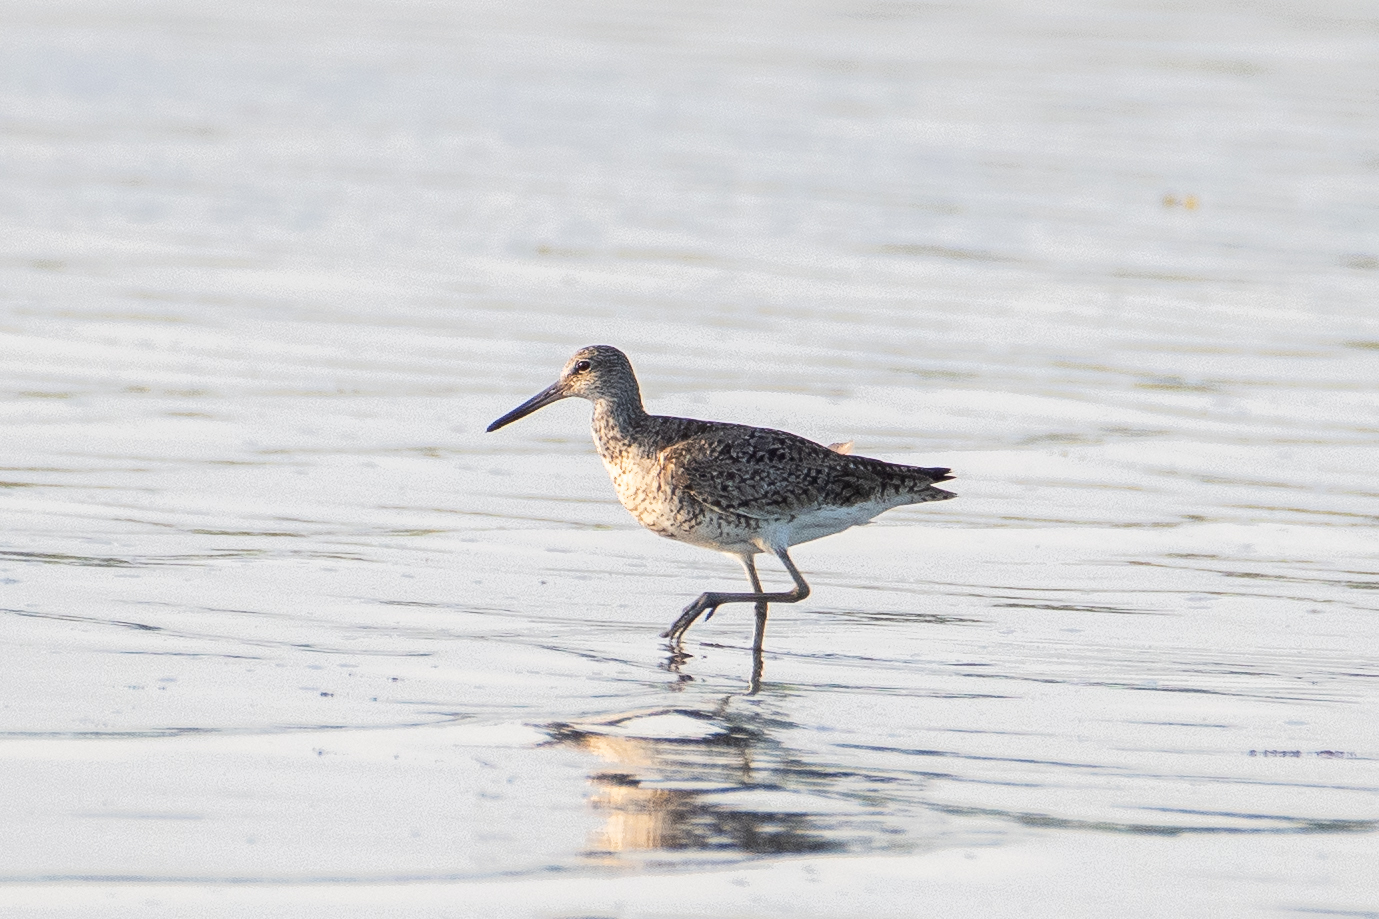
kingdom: Animalia
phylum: Chordata
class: Aves
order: Charadriiformes
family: Scolopacidae
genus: Tringa
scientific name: Tringa semipalmata
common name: Willet
